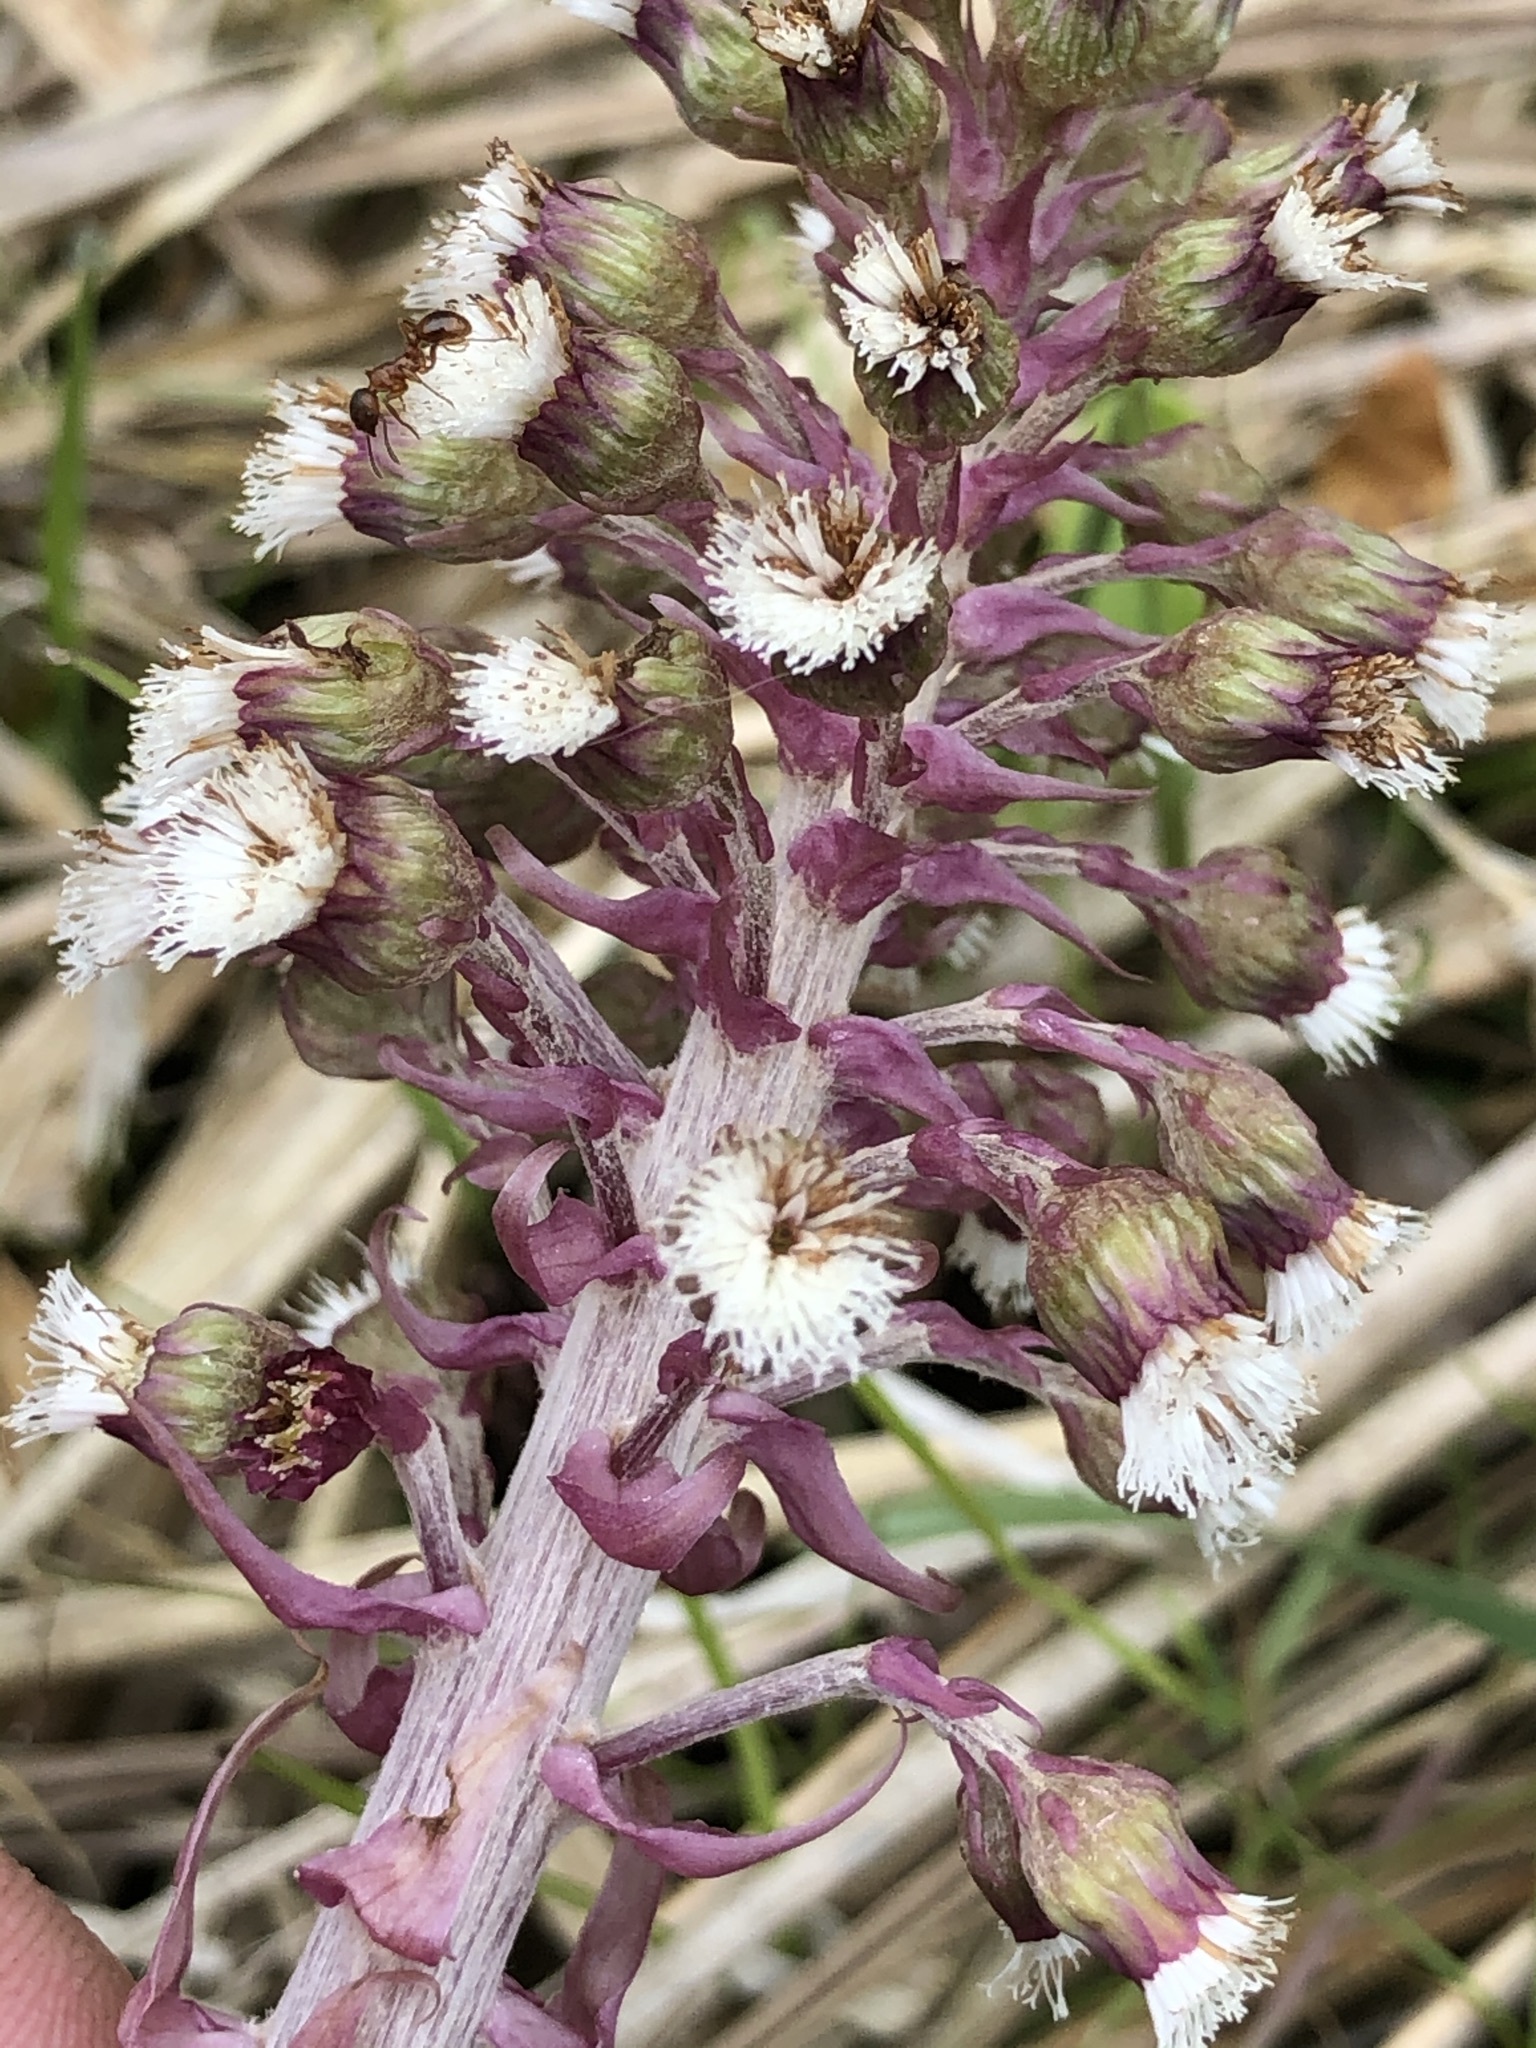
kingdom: Plantae
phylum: Tracheophyta
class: Magnoliopsida
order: Asterales
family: Asteraceae
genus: Petasites
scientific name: Petasites hybridus
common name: Butterbur
